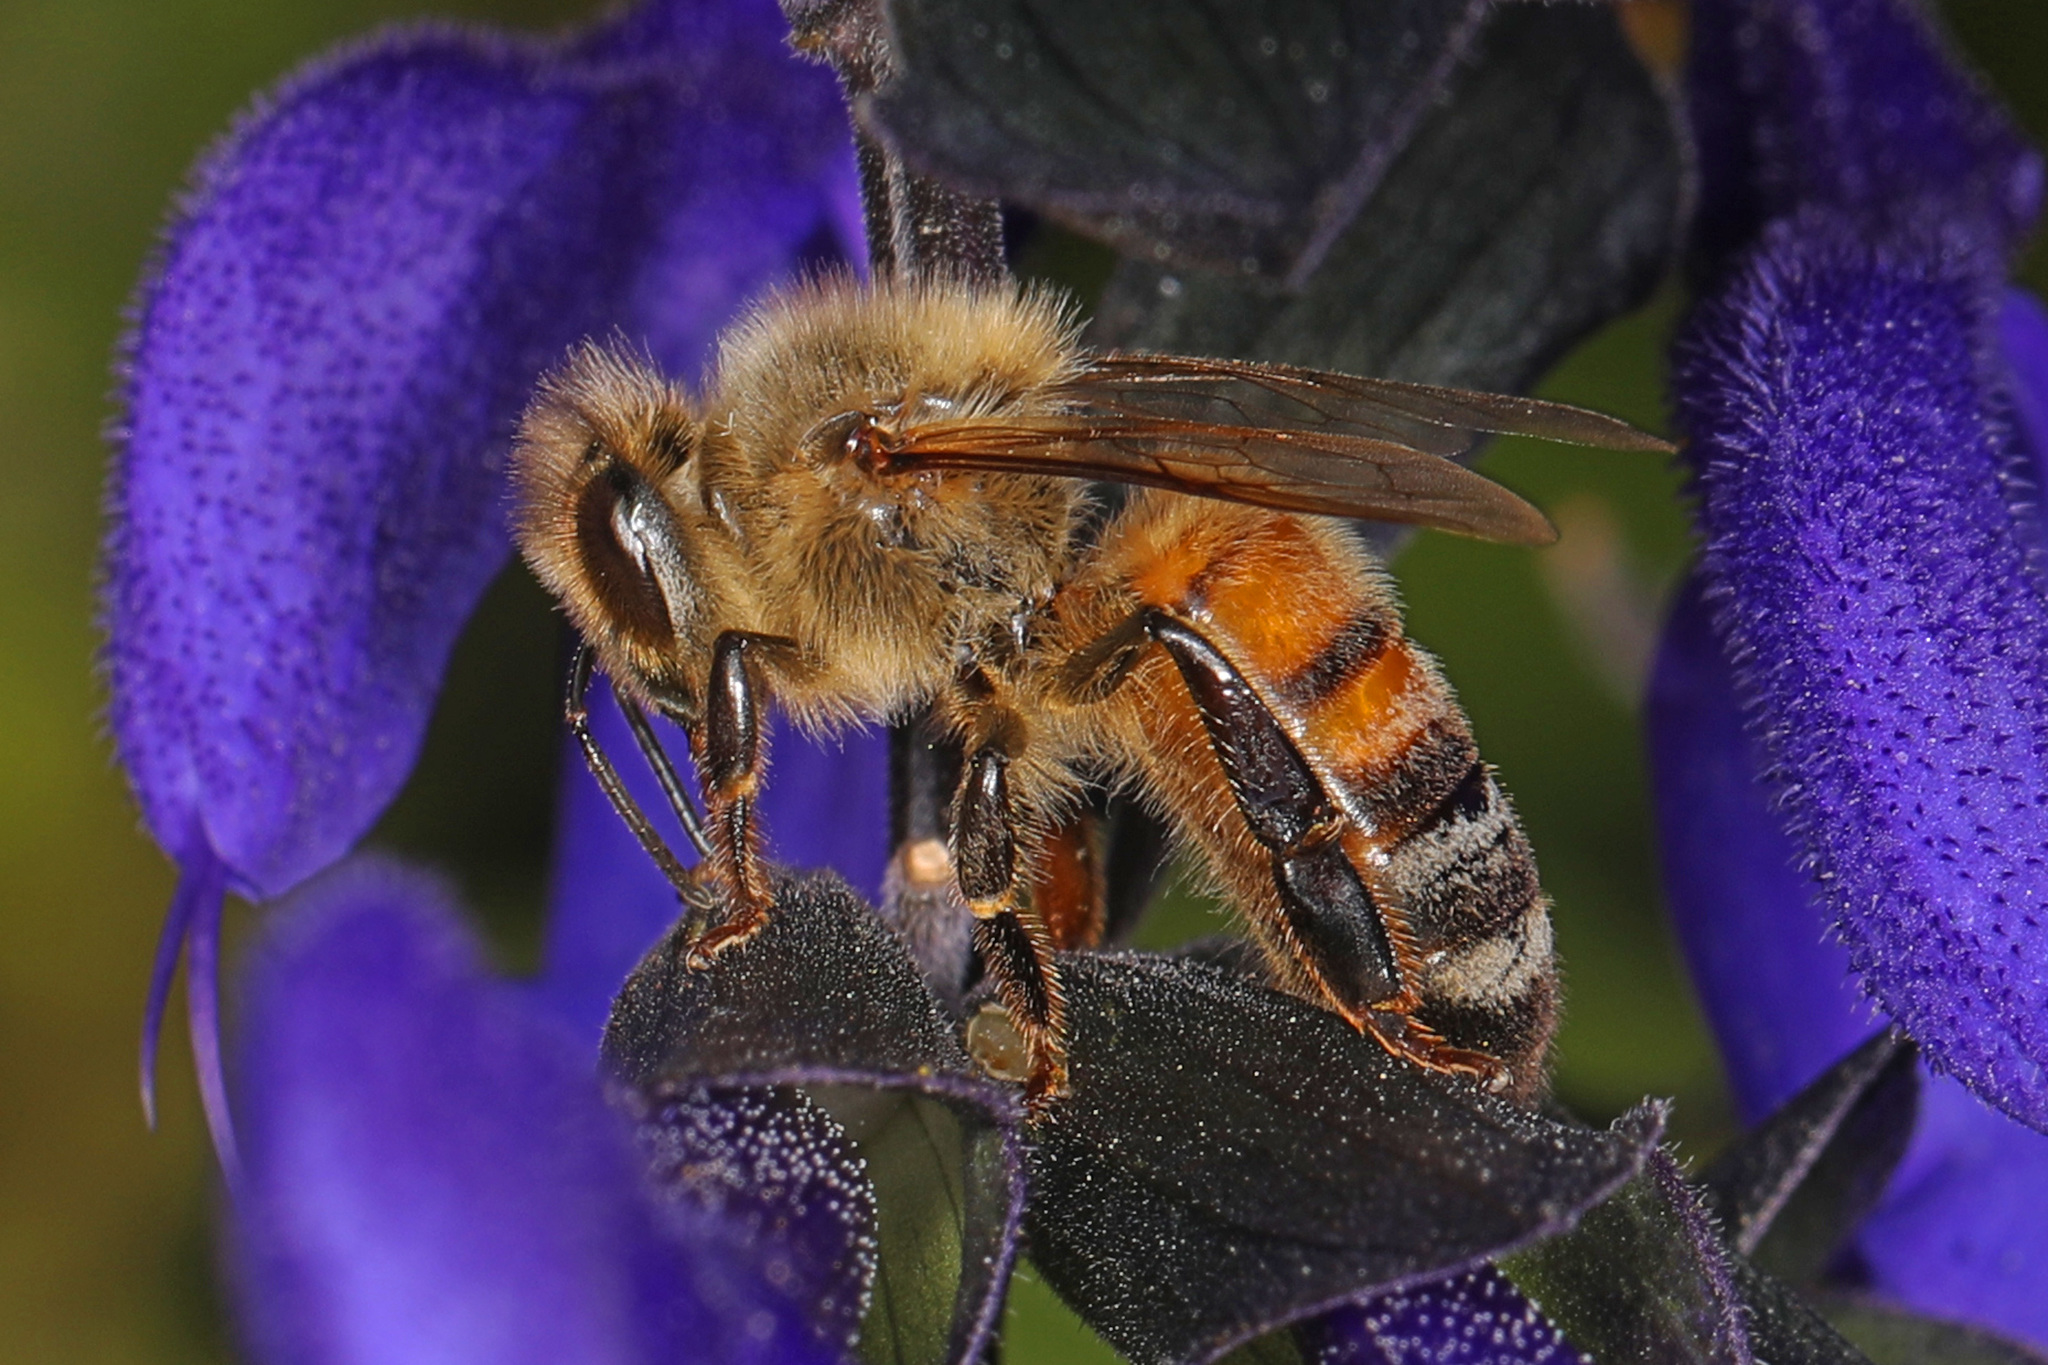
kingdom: Animalia
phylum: Arthropoda
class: Insecta
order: Hymenoptera
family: Apidae
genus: Apis
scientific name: Apis mellifera
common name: Honey bee
